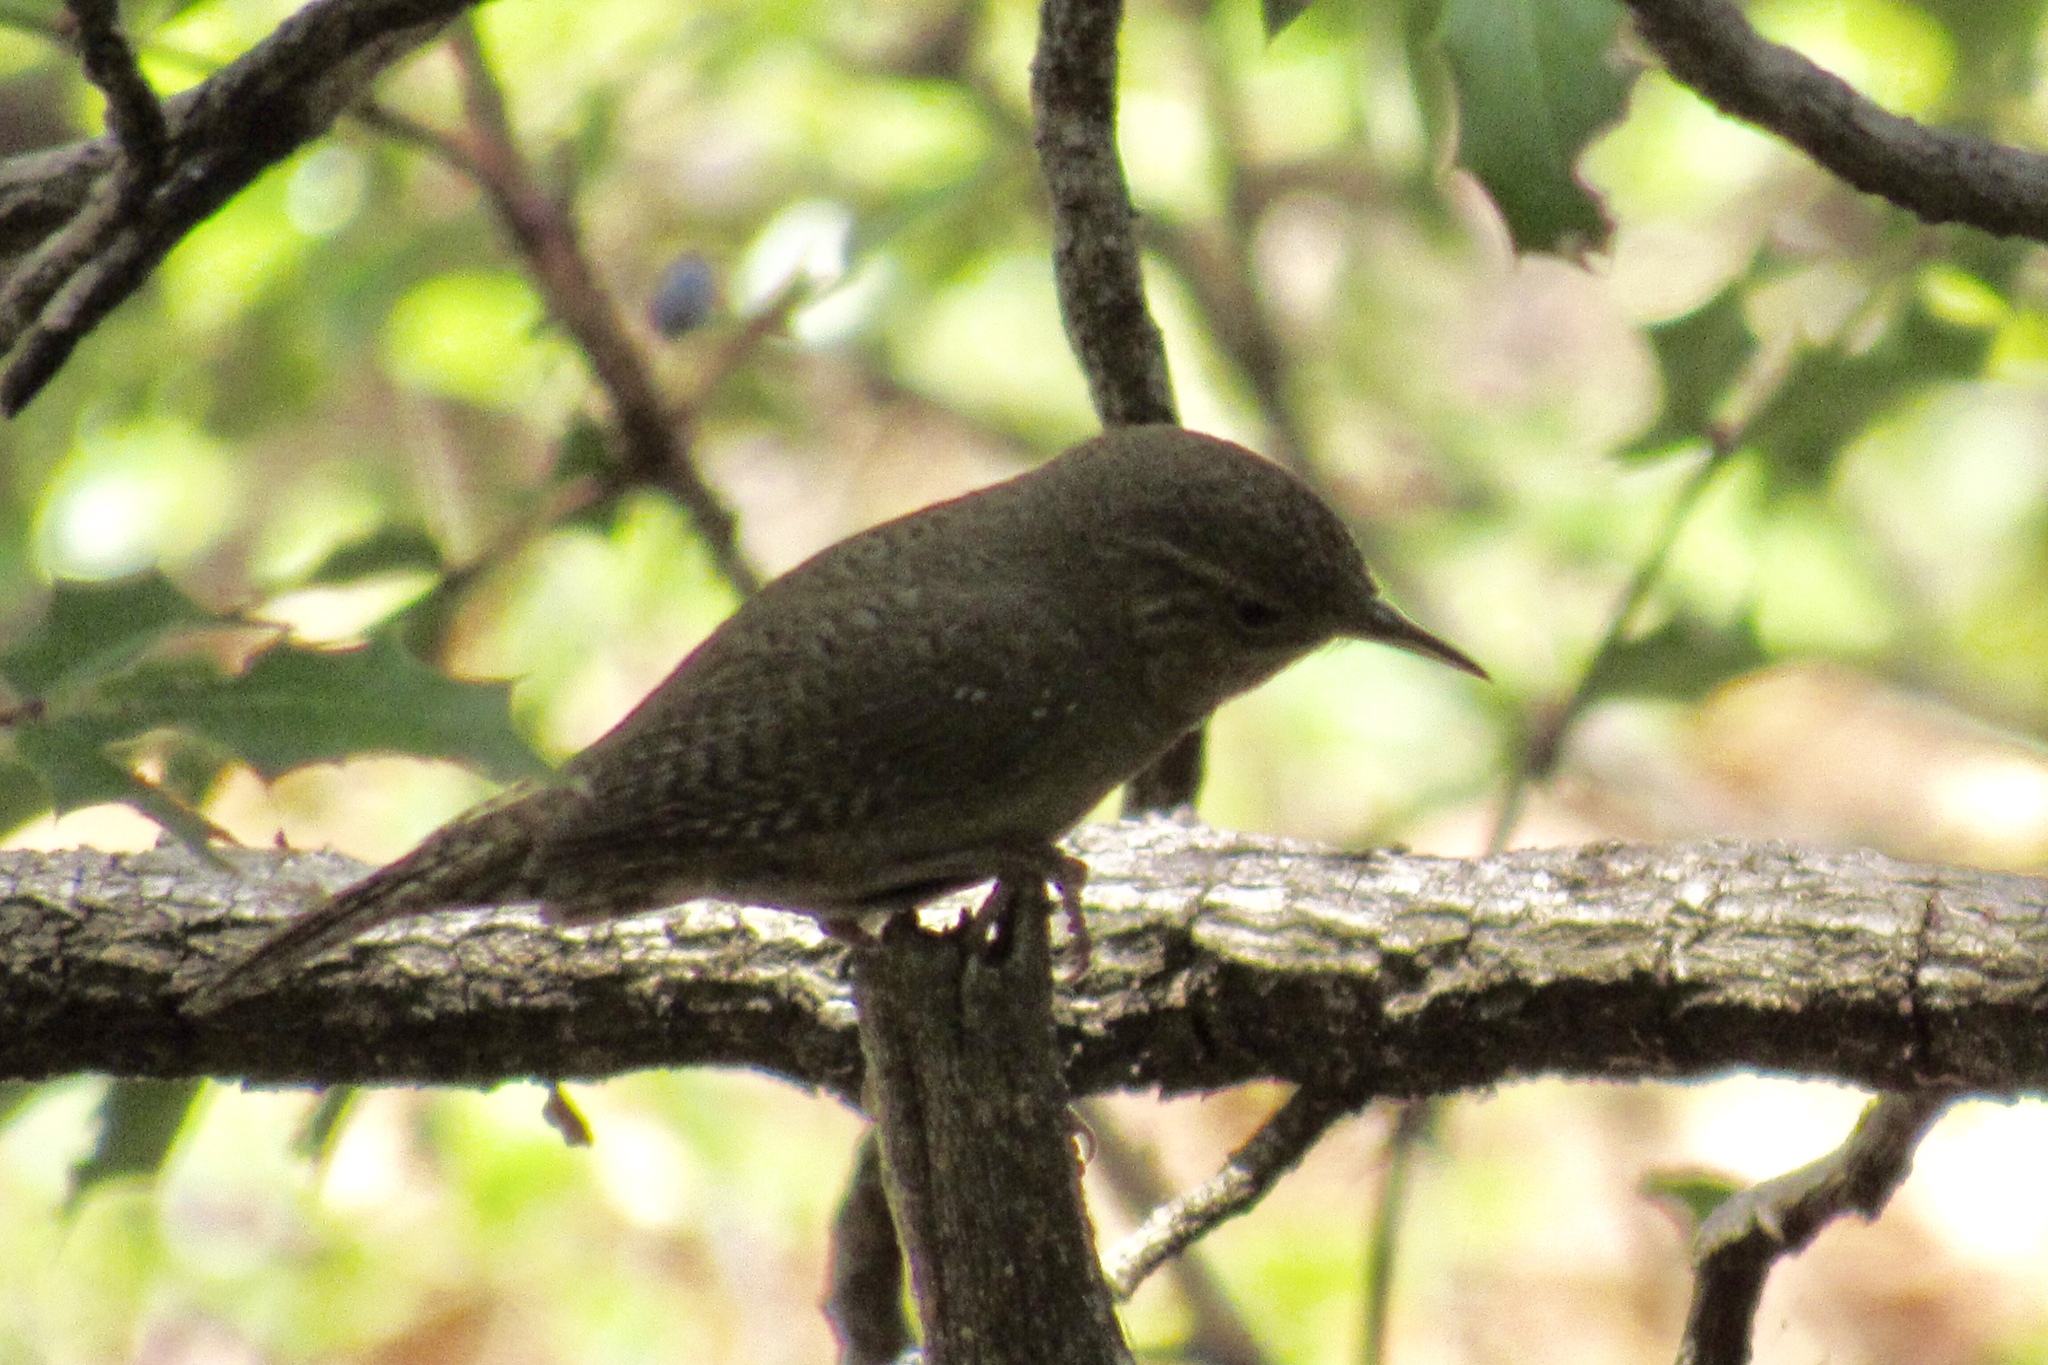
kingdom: Animalia
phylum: Chordata
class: Aves
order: Passeriformes
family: Troglodytidae
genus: Troglodytes
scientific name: Troglodytes aedon
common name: House wren
